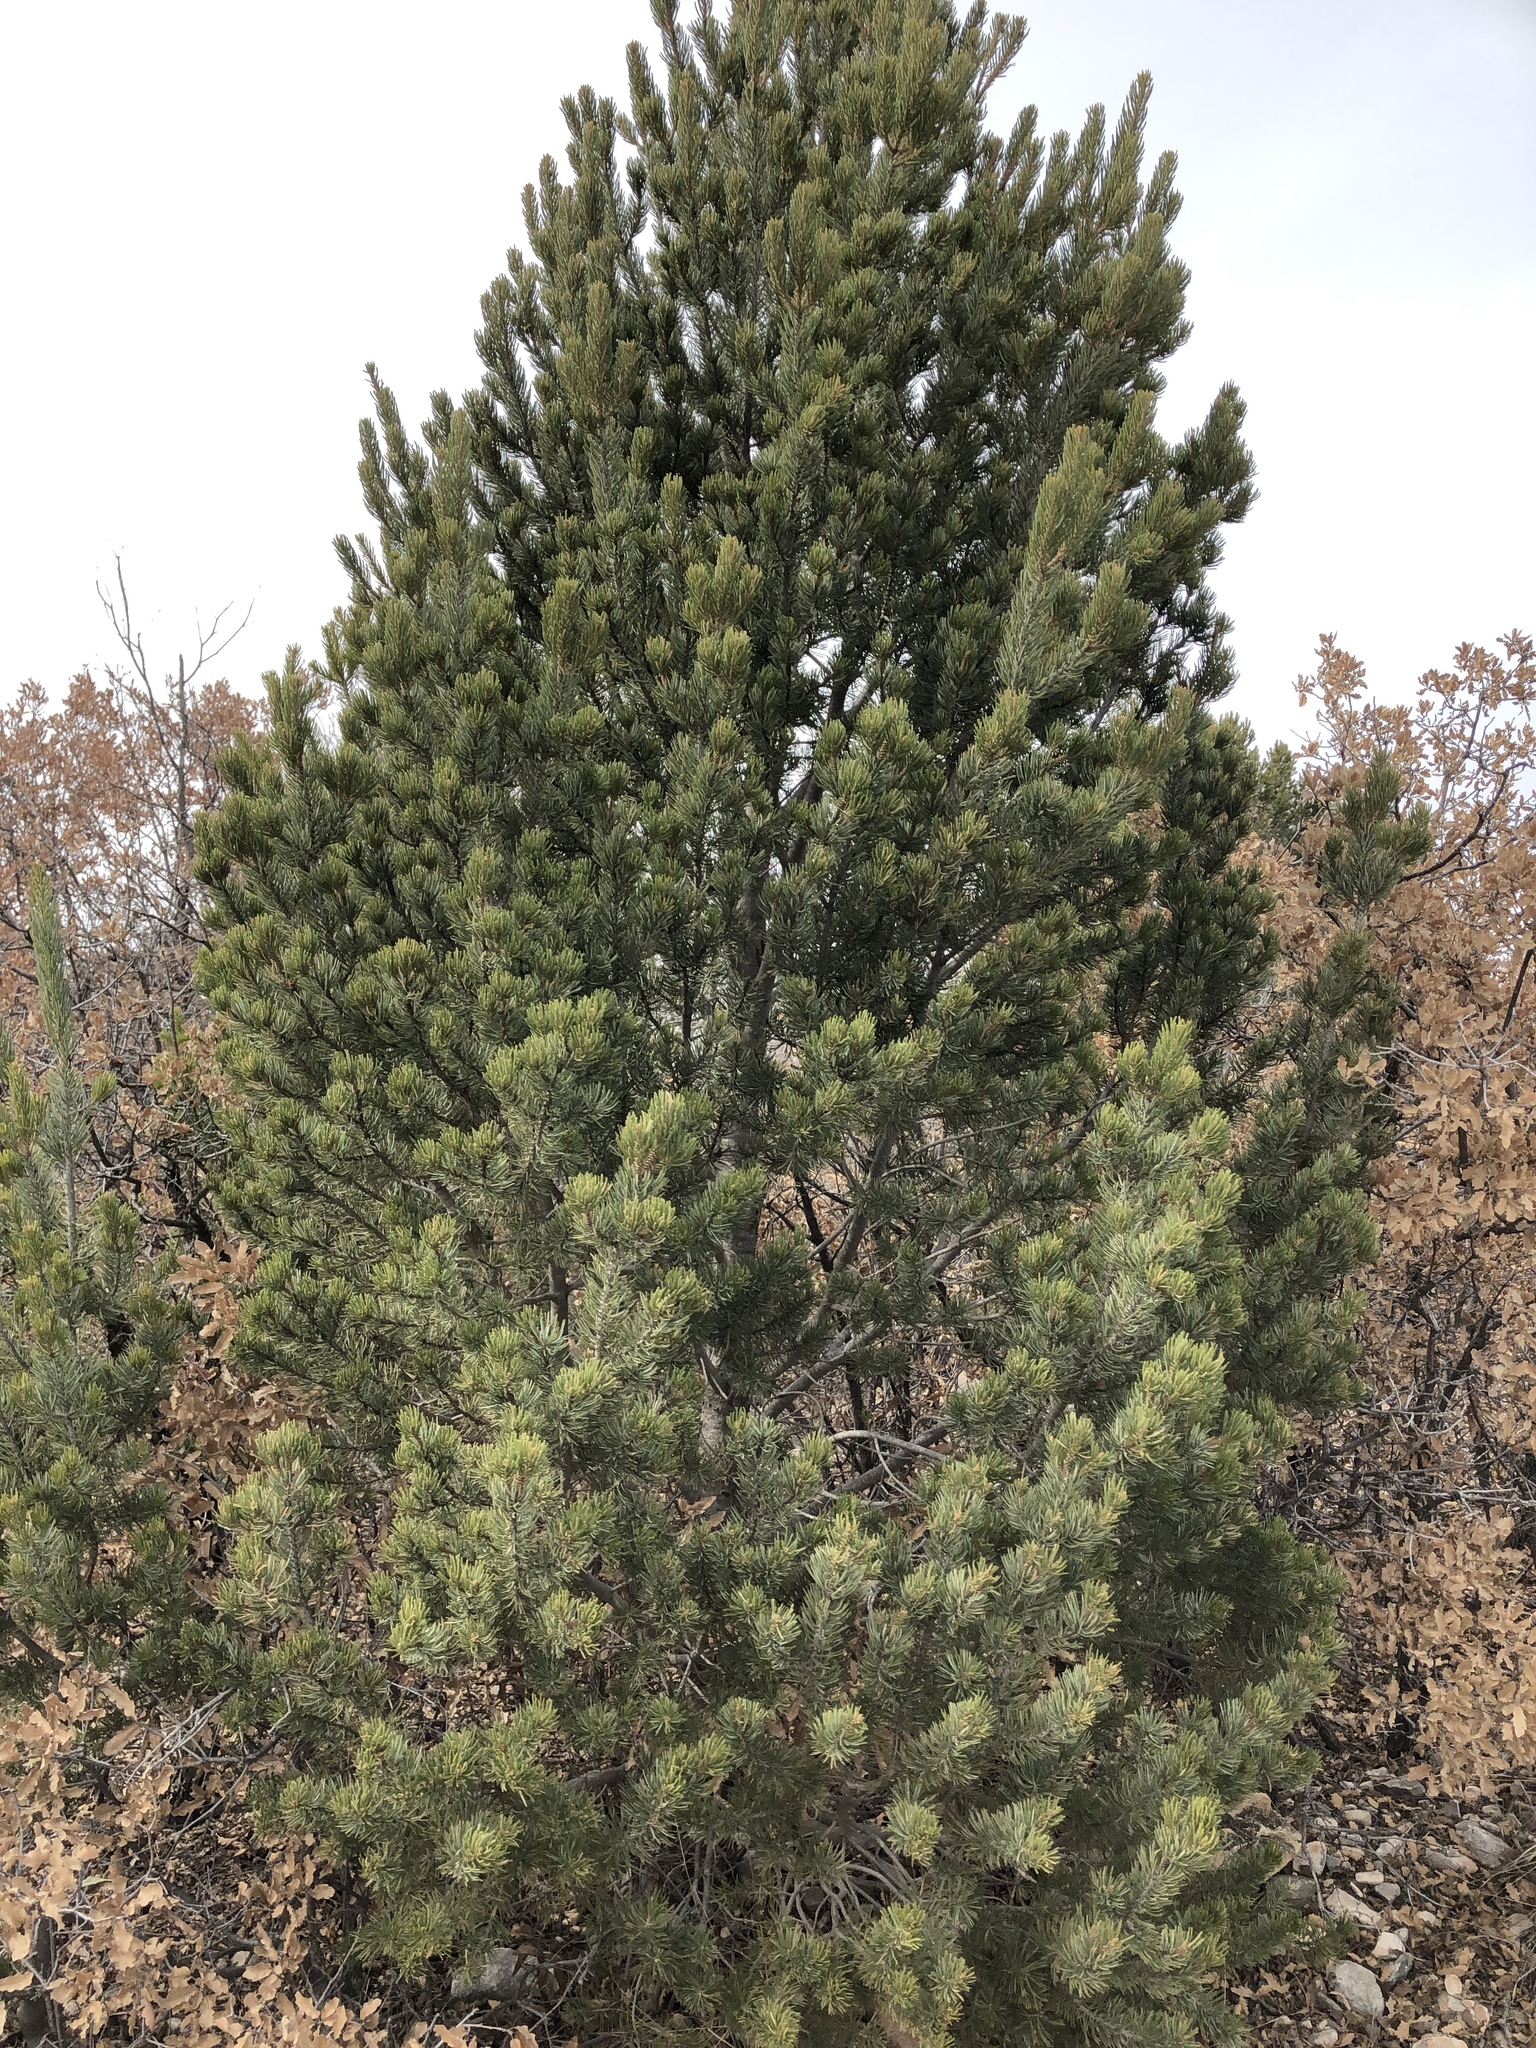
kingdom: Plantae
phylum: Tracheophyta
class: Pinopsida
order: Pinales
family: Pinaceae
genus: Pinus
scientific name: Pinus edulis
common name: Colorado pinyon
